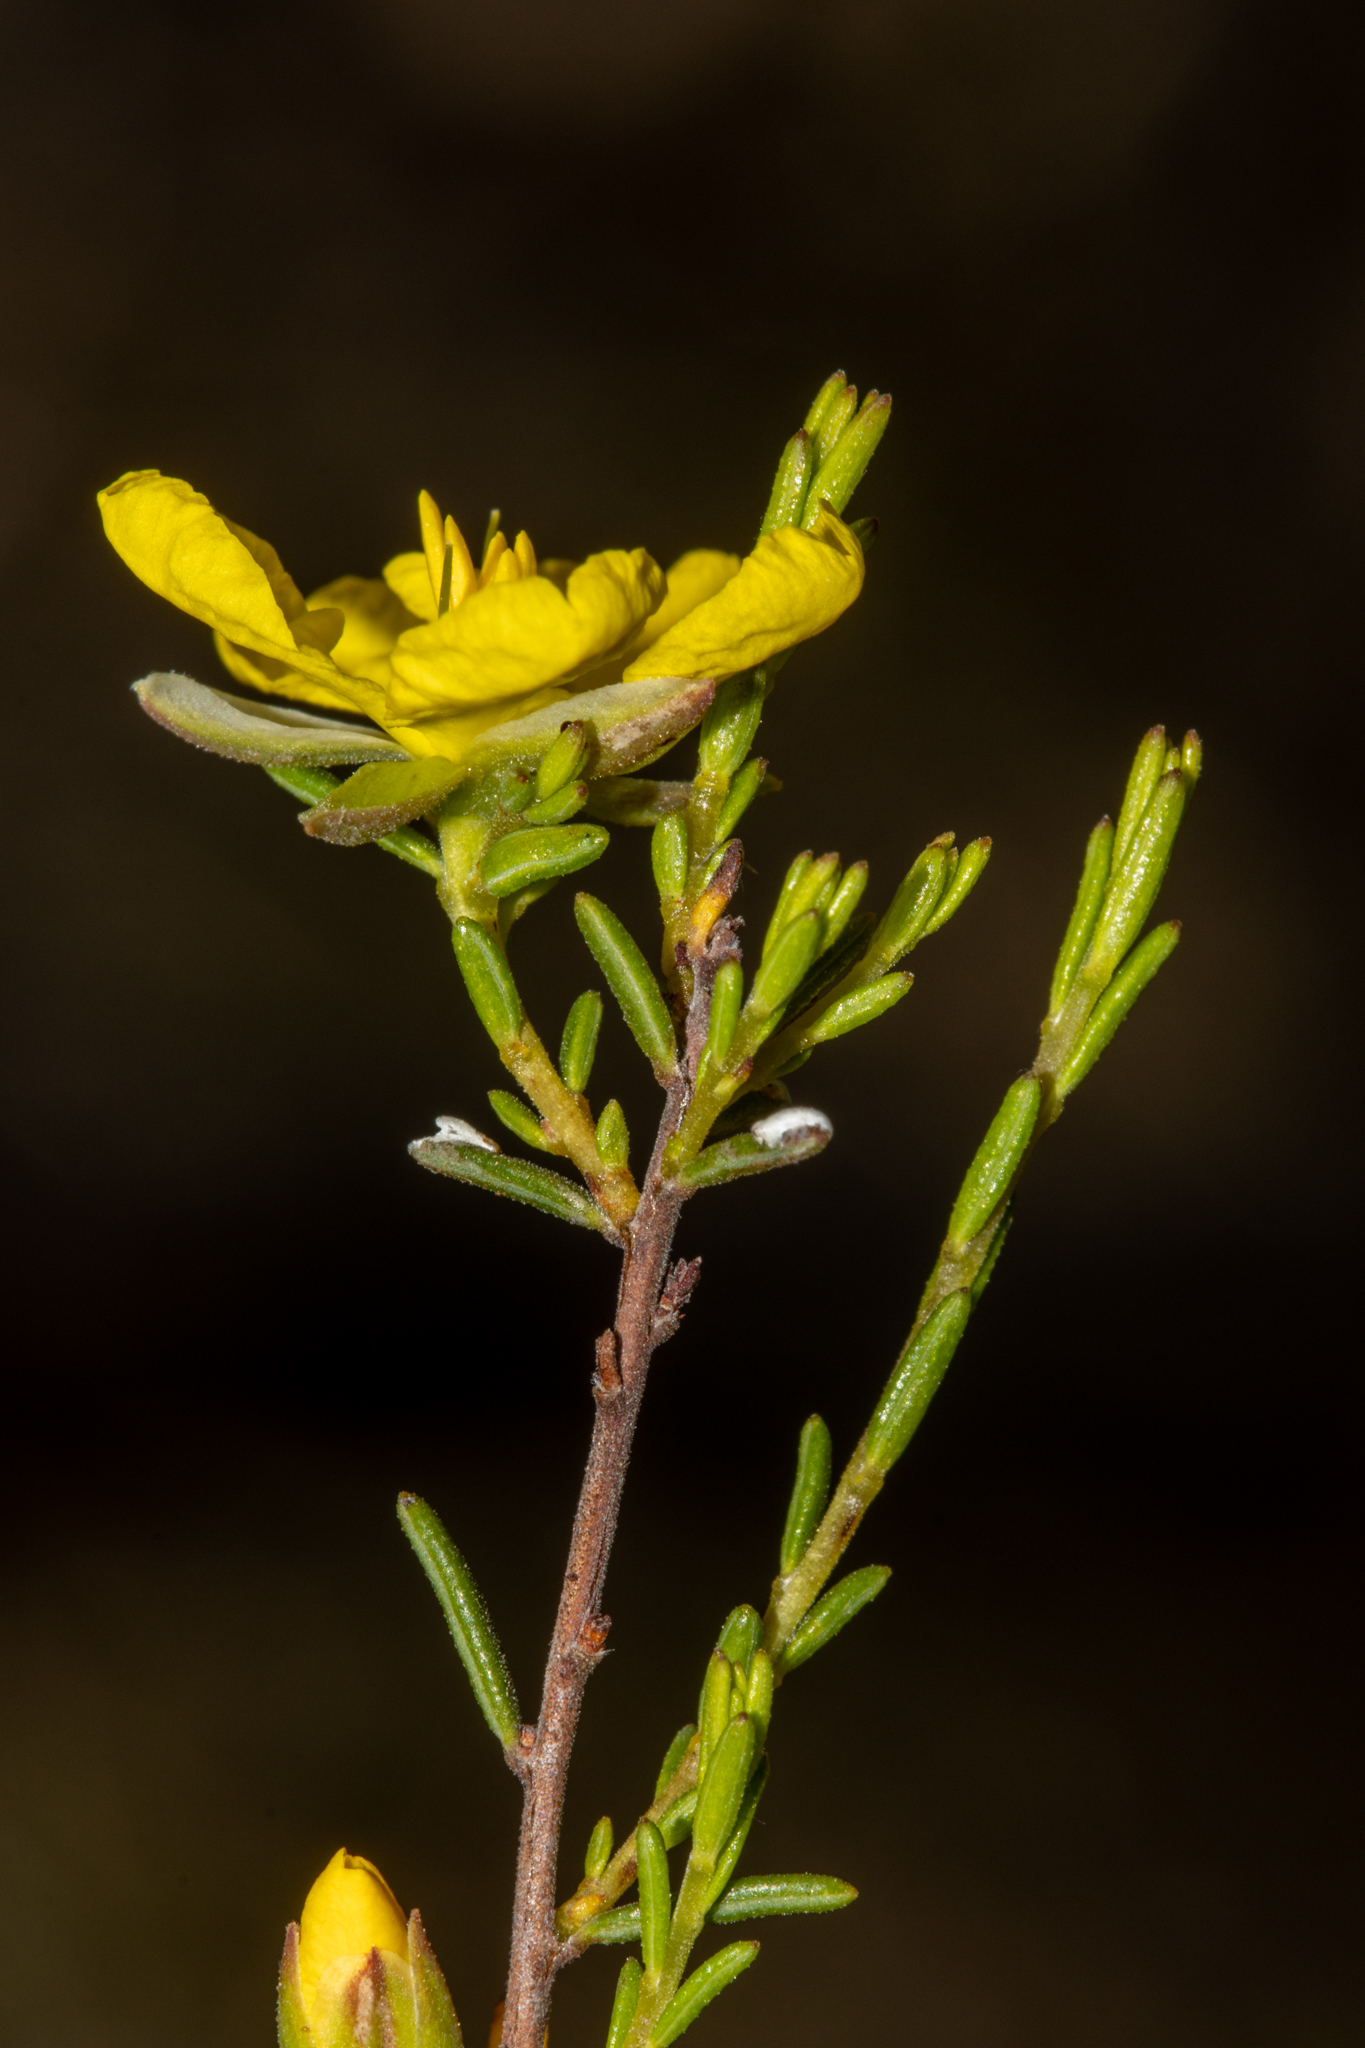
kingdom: Plantae
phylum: Tracheophyta
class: Magnoliopsida
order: Dilleniales
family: Dilleniaceae
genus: Hibbertia
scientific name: Hibbertia devitata
